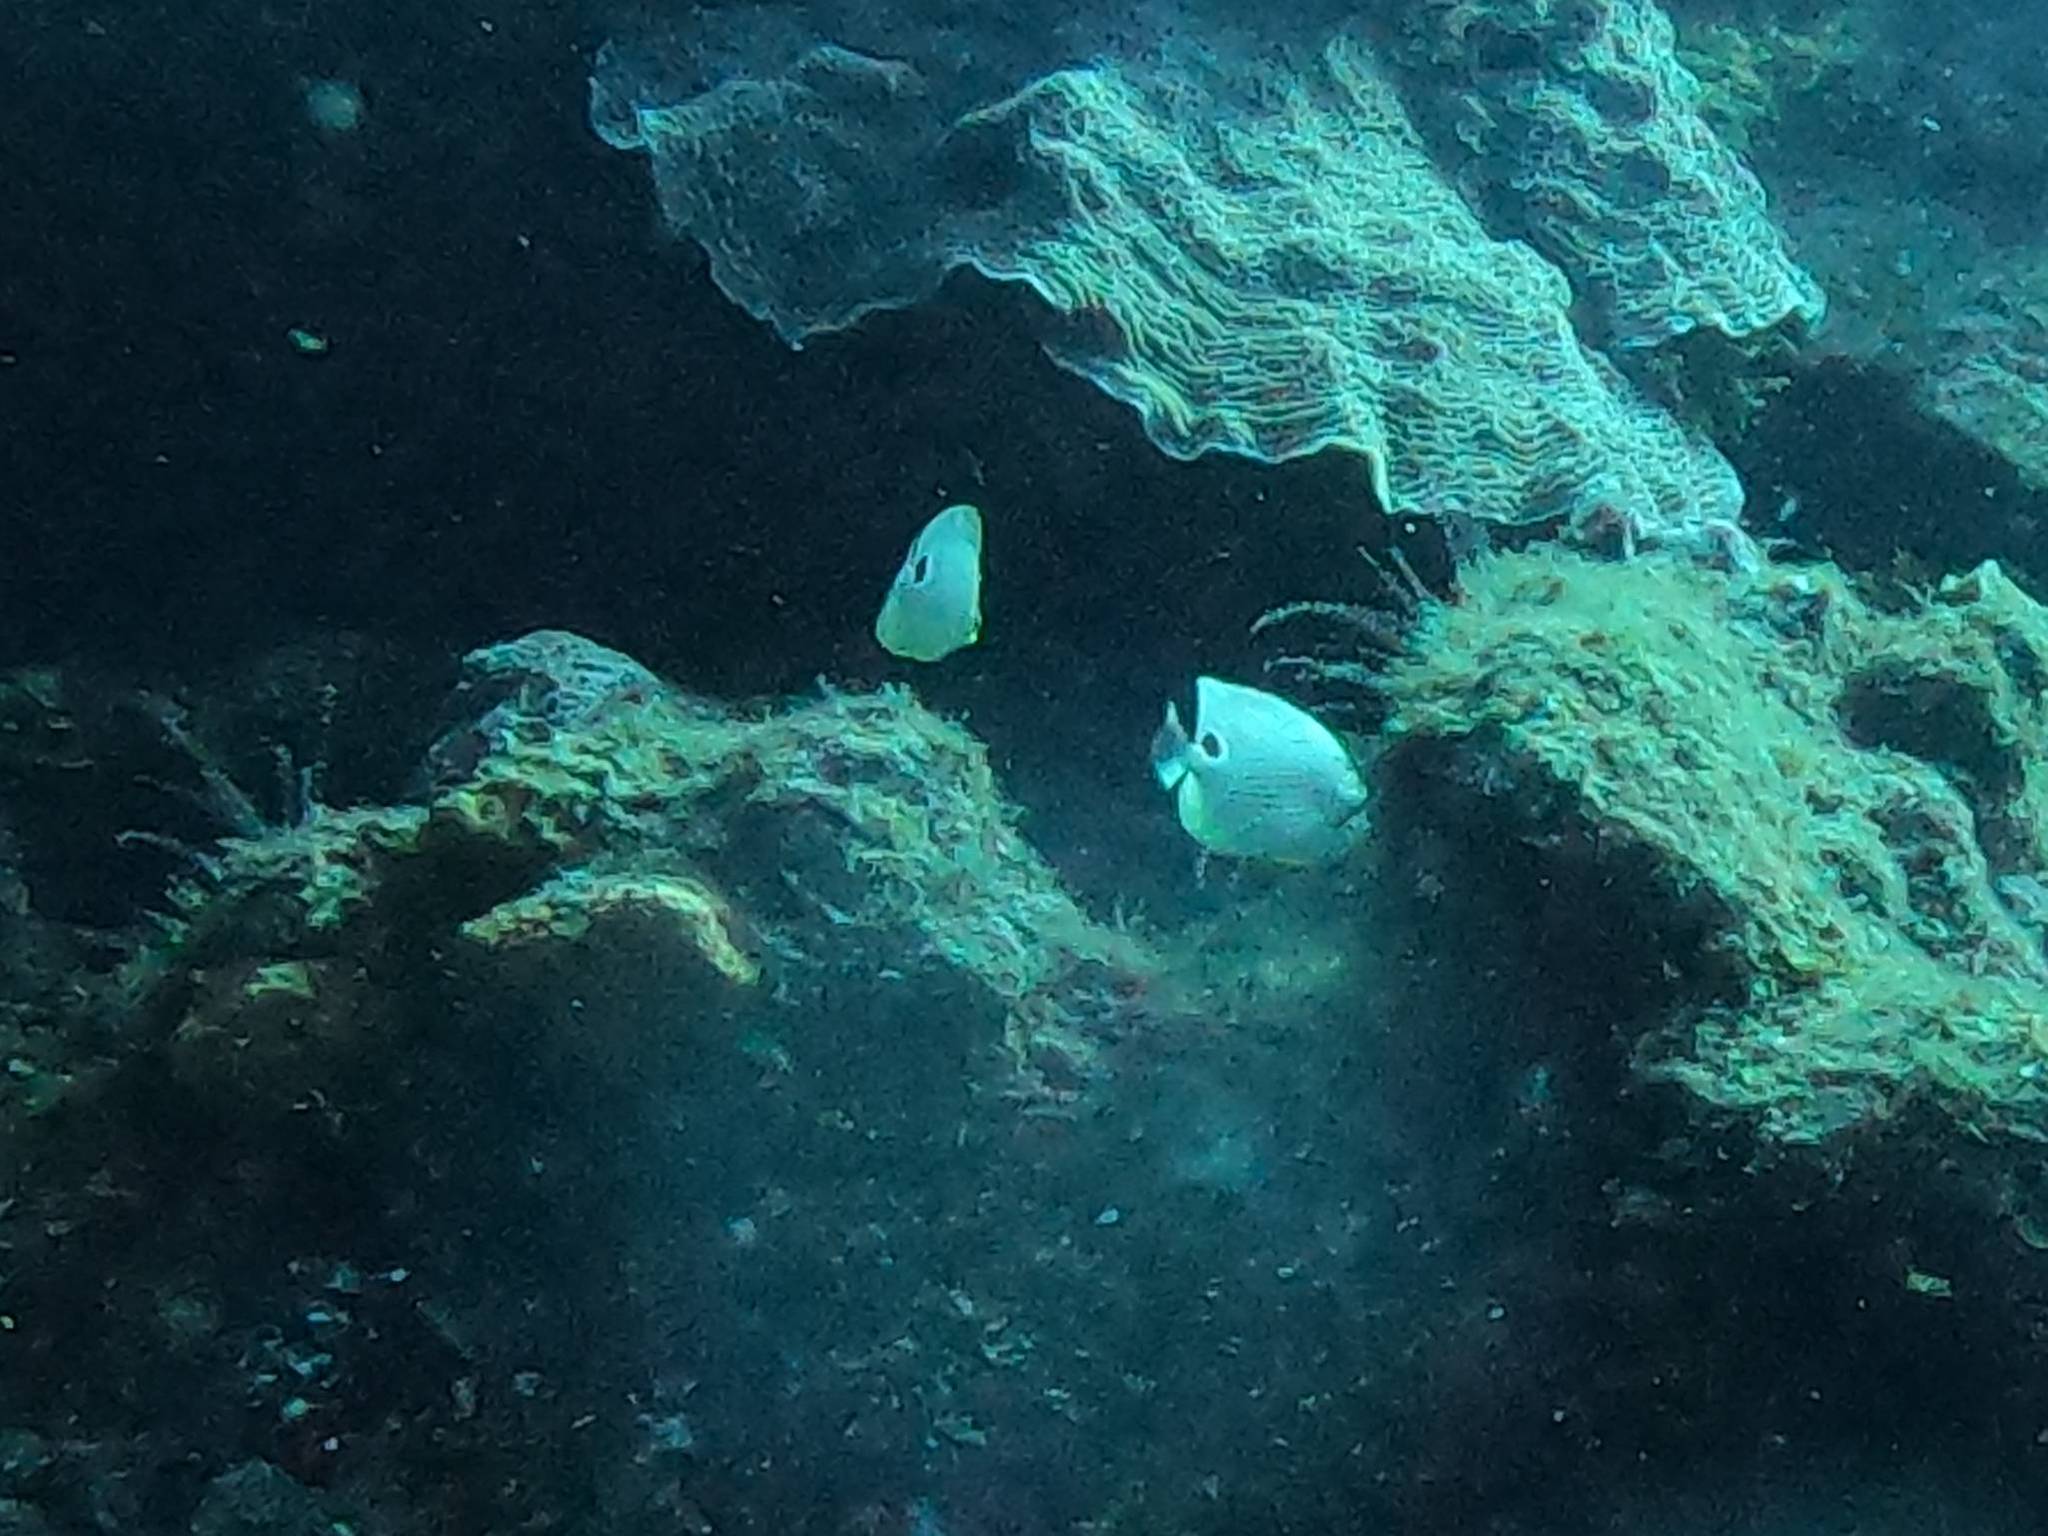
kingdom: Animalia
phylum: Chordata
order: Perciformes
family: Chaetodontidae
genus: Chaetodon
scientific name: Chaetodon capistratus
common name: Kete
